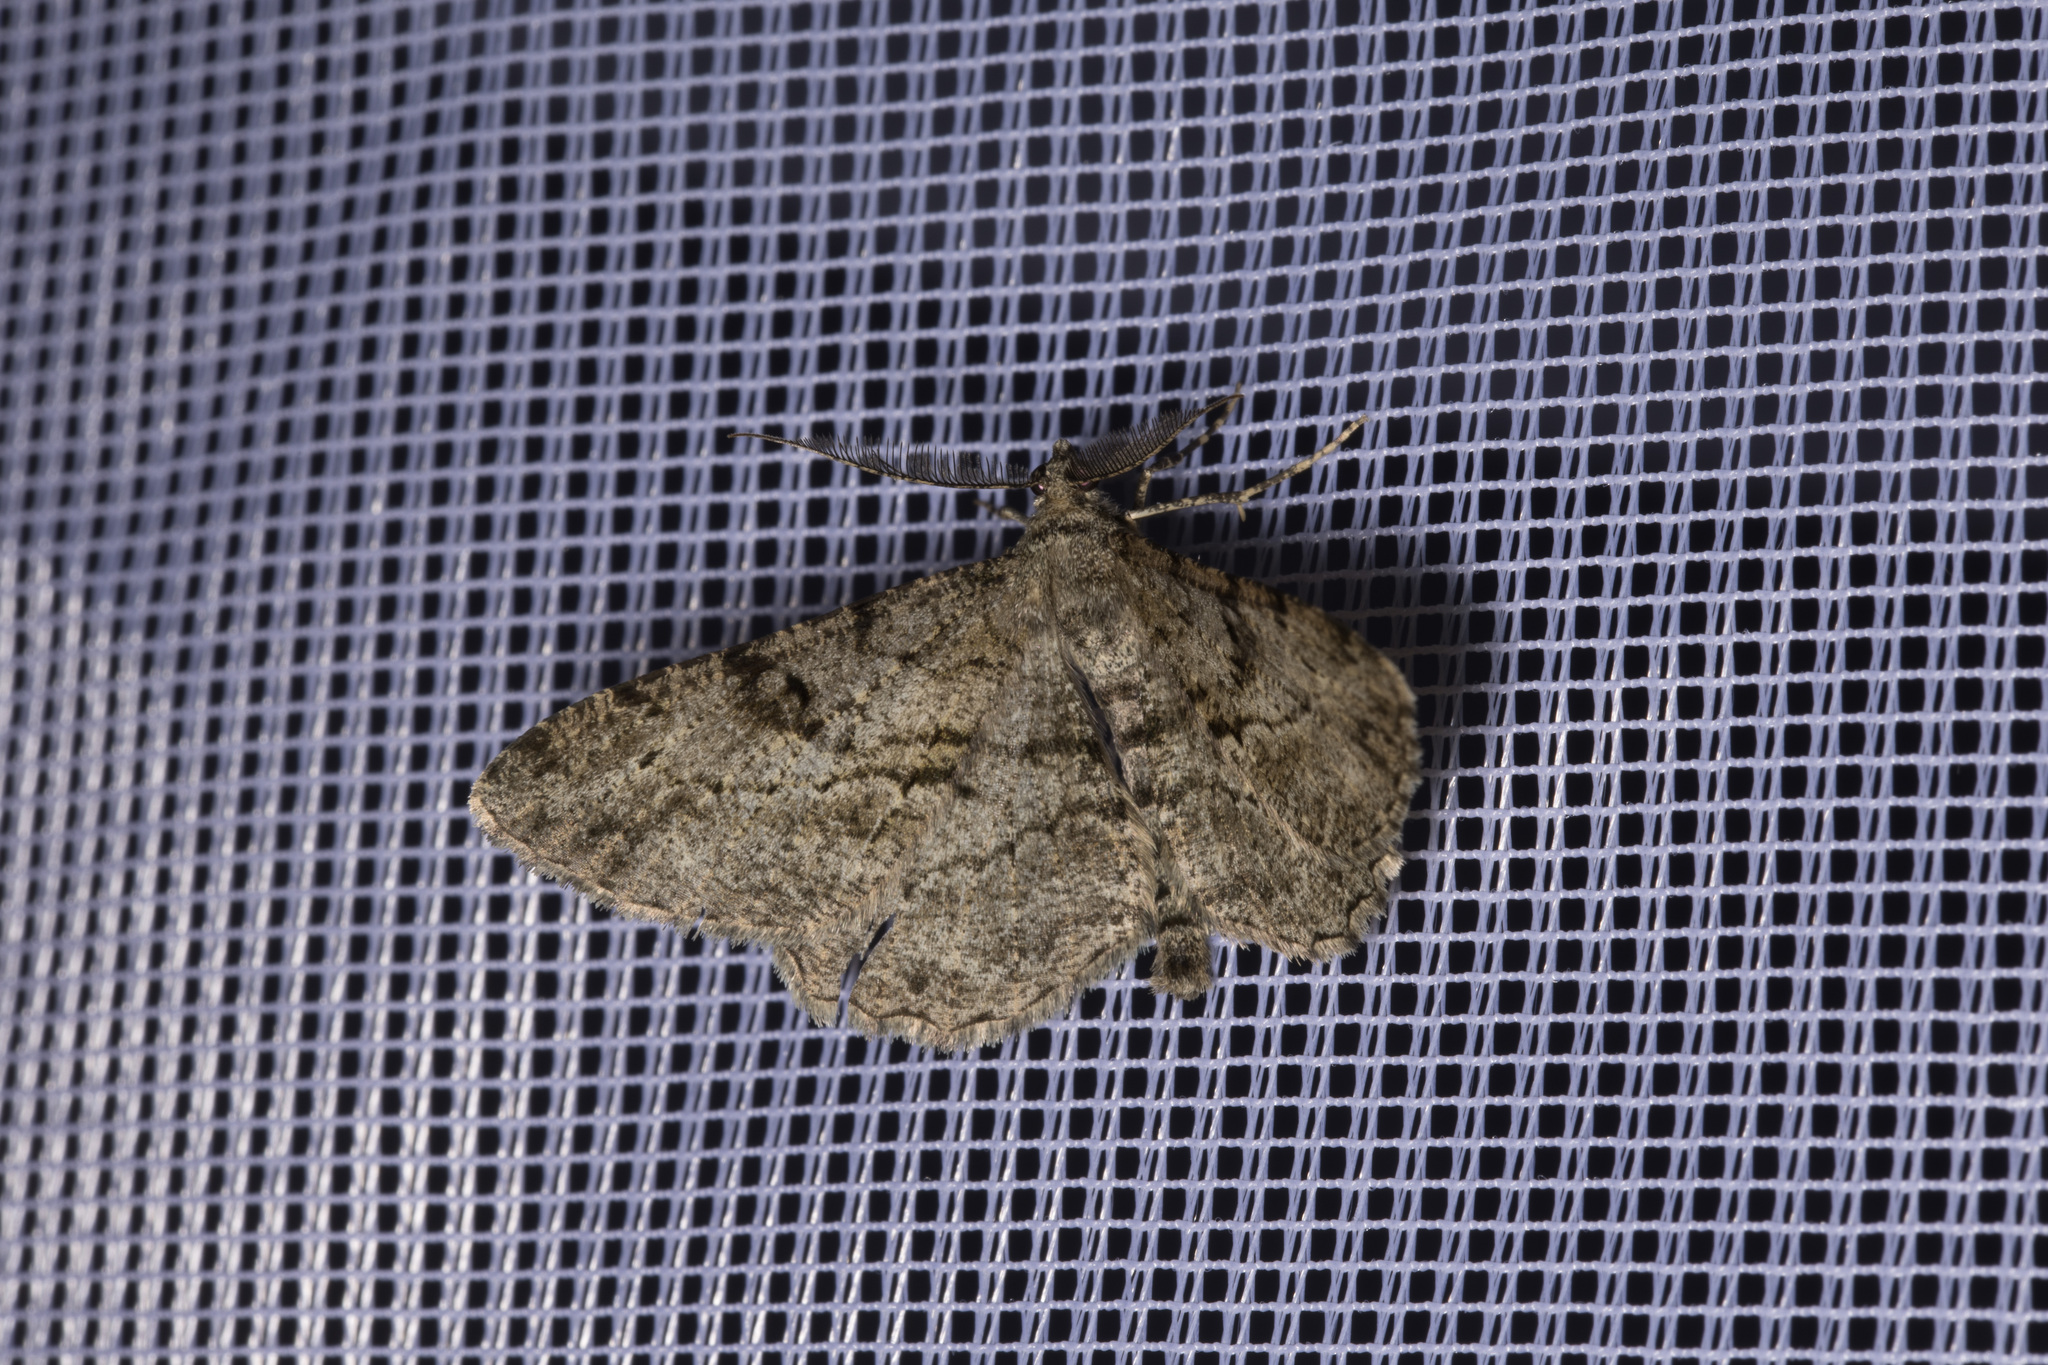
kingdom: Animalia
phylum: Arthropoda
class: Insecta
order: Lepidoptera
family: Geometridae
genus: Peribatodes
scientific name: Peribatodes rhomboidaria
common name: Willow beauty
